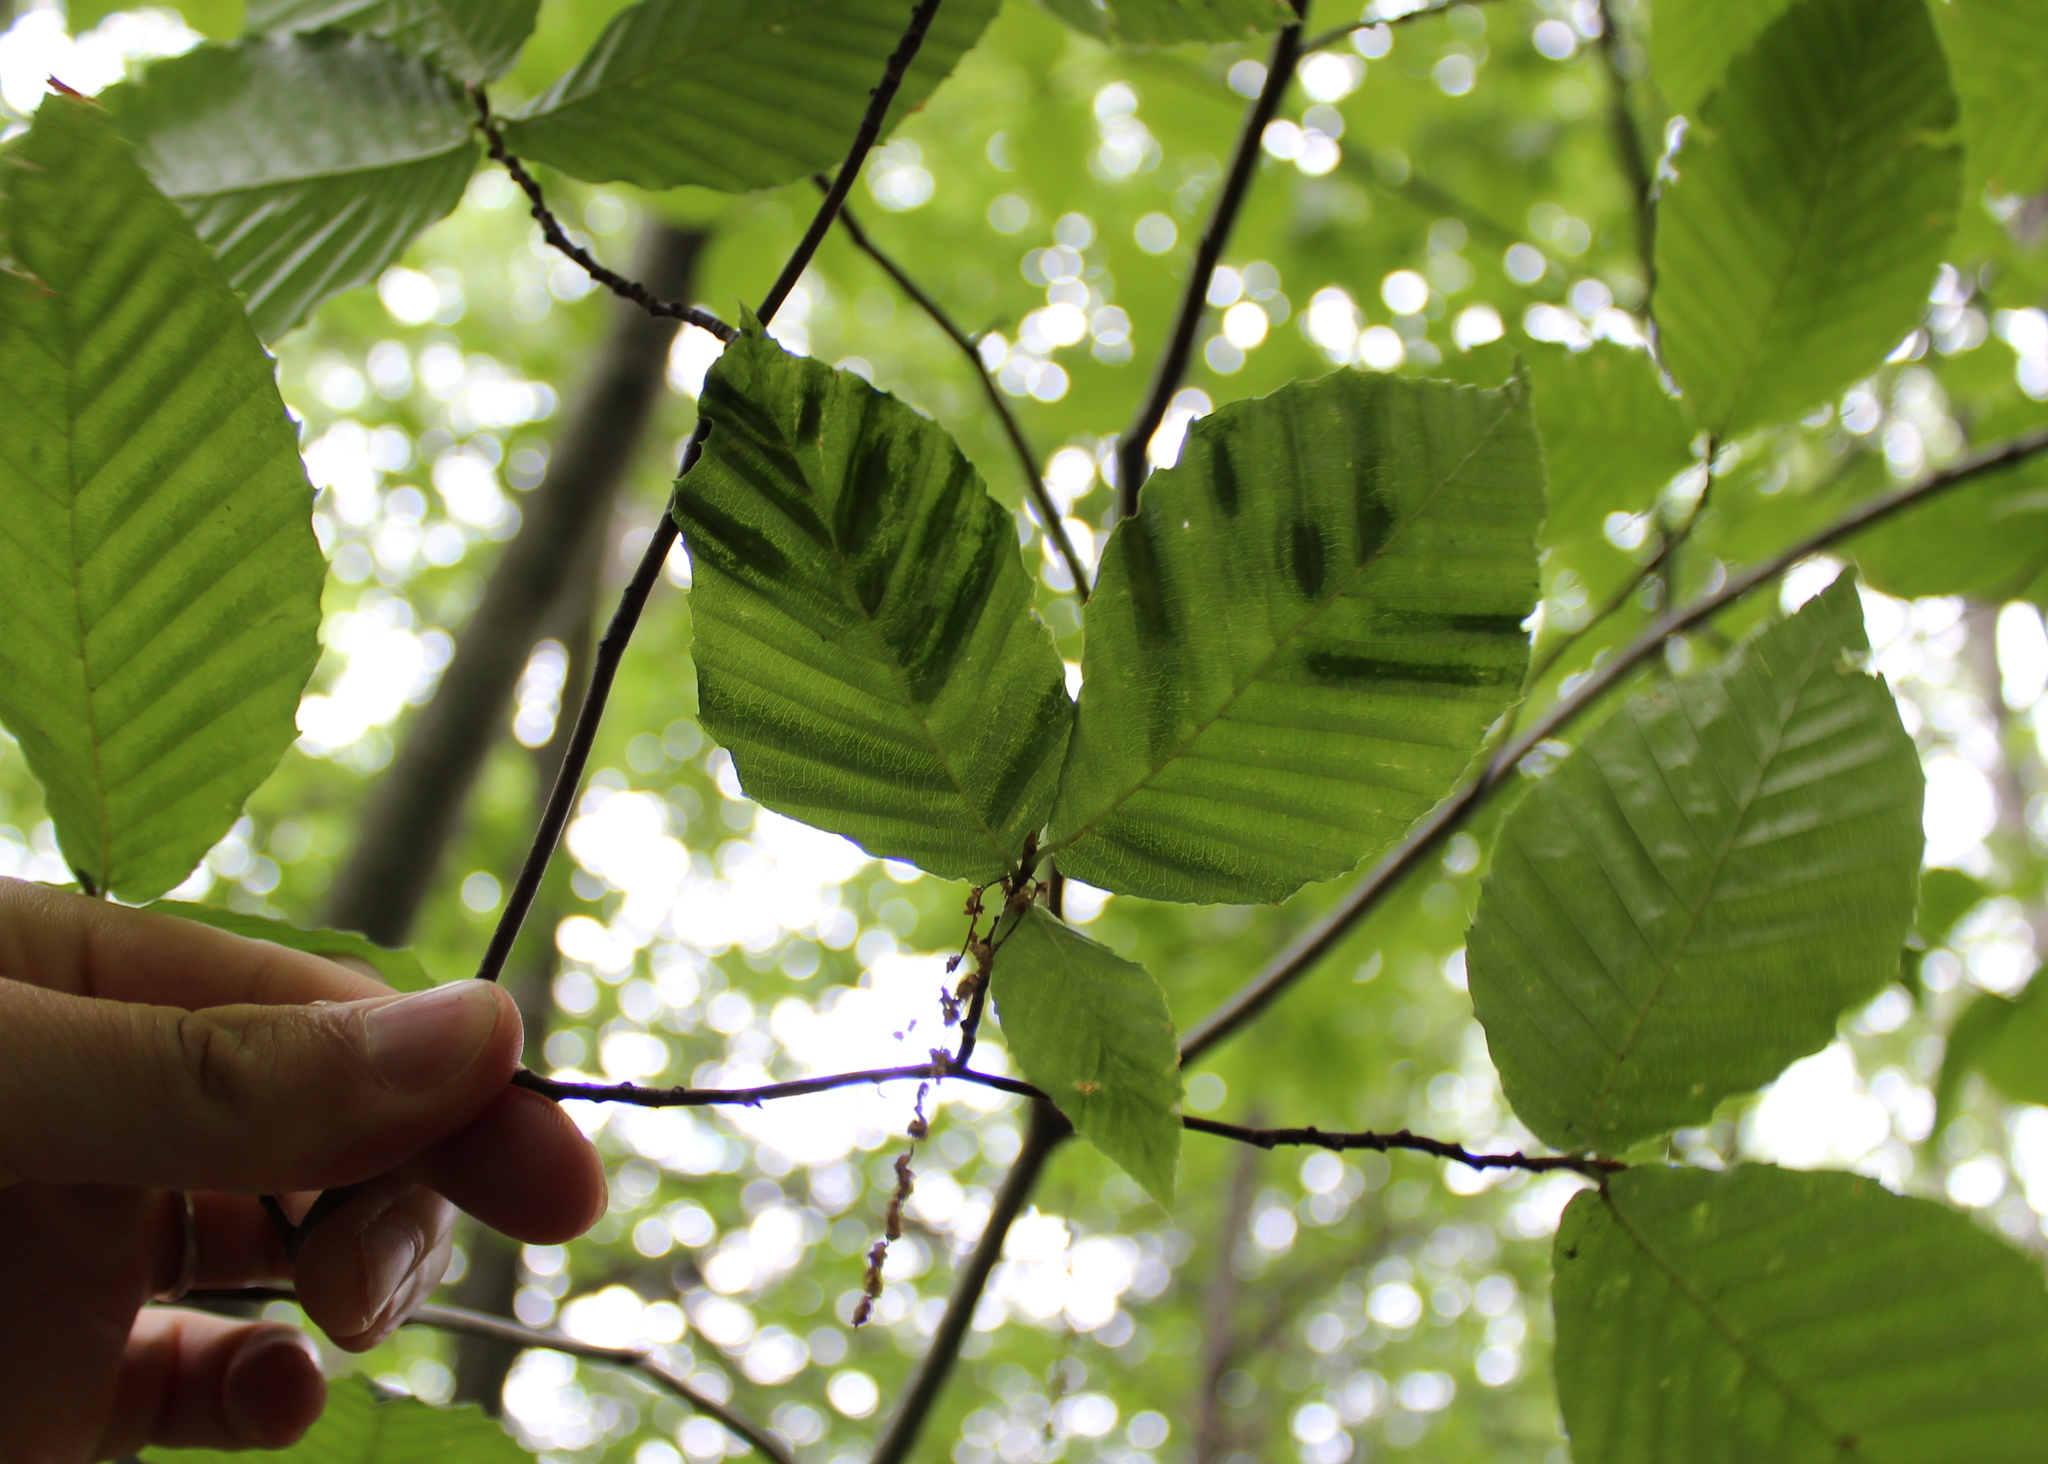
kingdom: Animalia
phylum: Nematoda
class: Chromadorea
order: Rhabditida
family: Anguinidae
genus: Litylenchus
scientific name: Litylenchus crenatae
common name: Beech leaf disease
